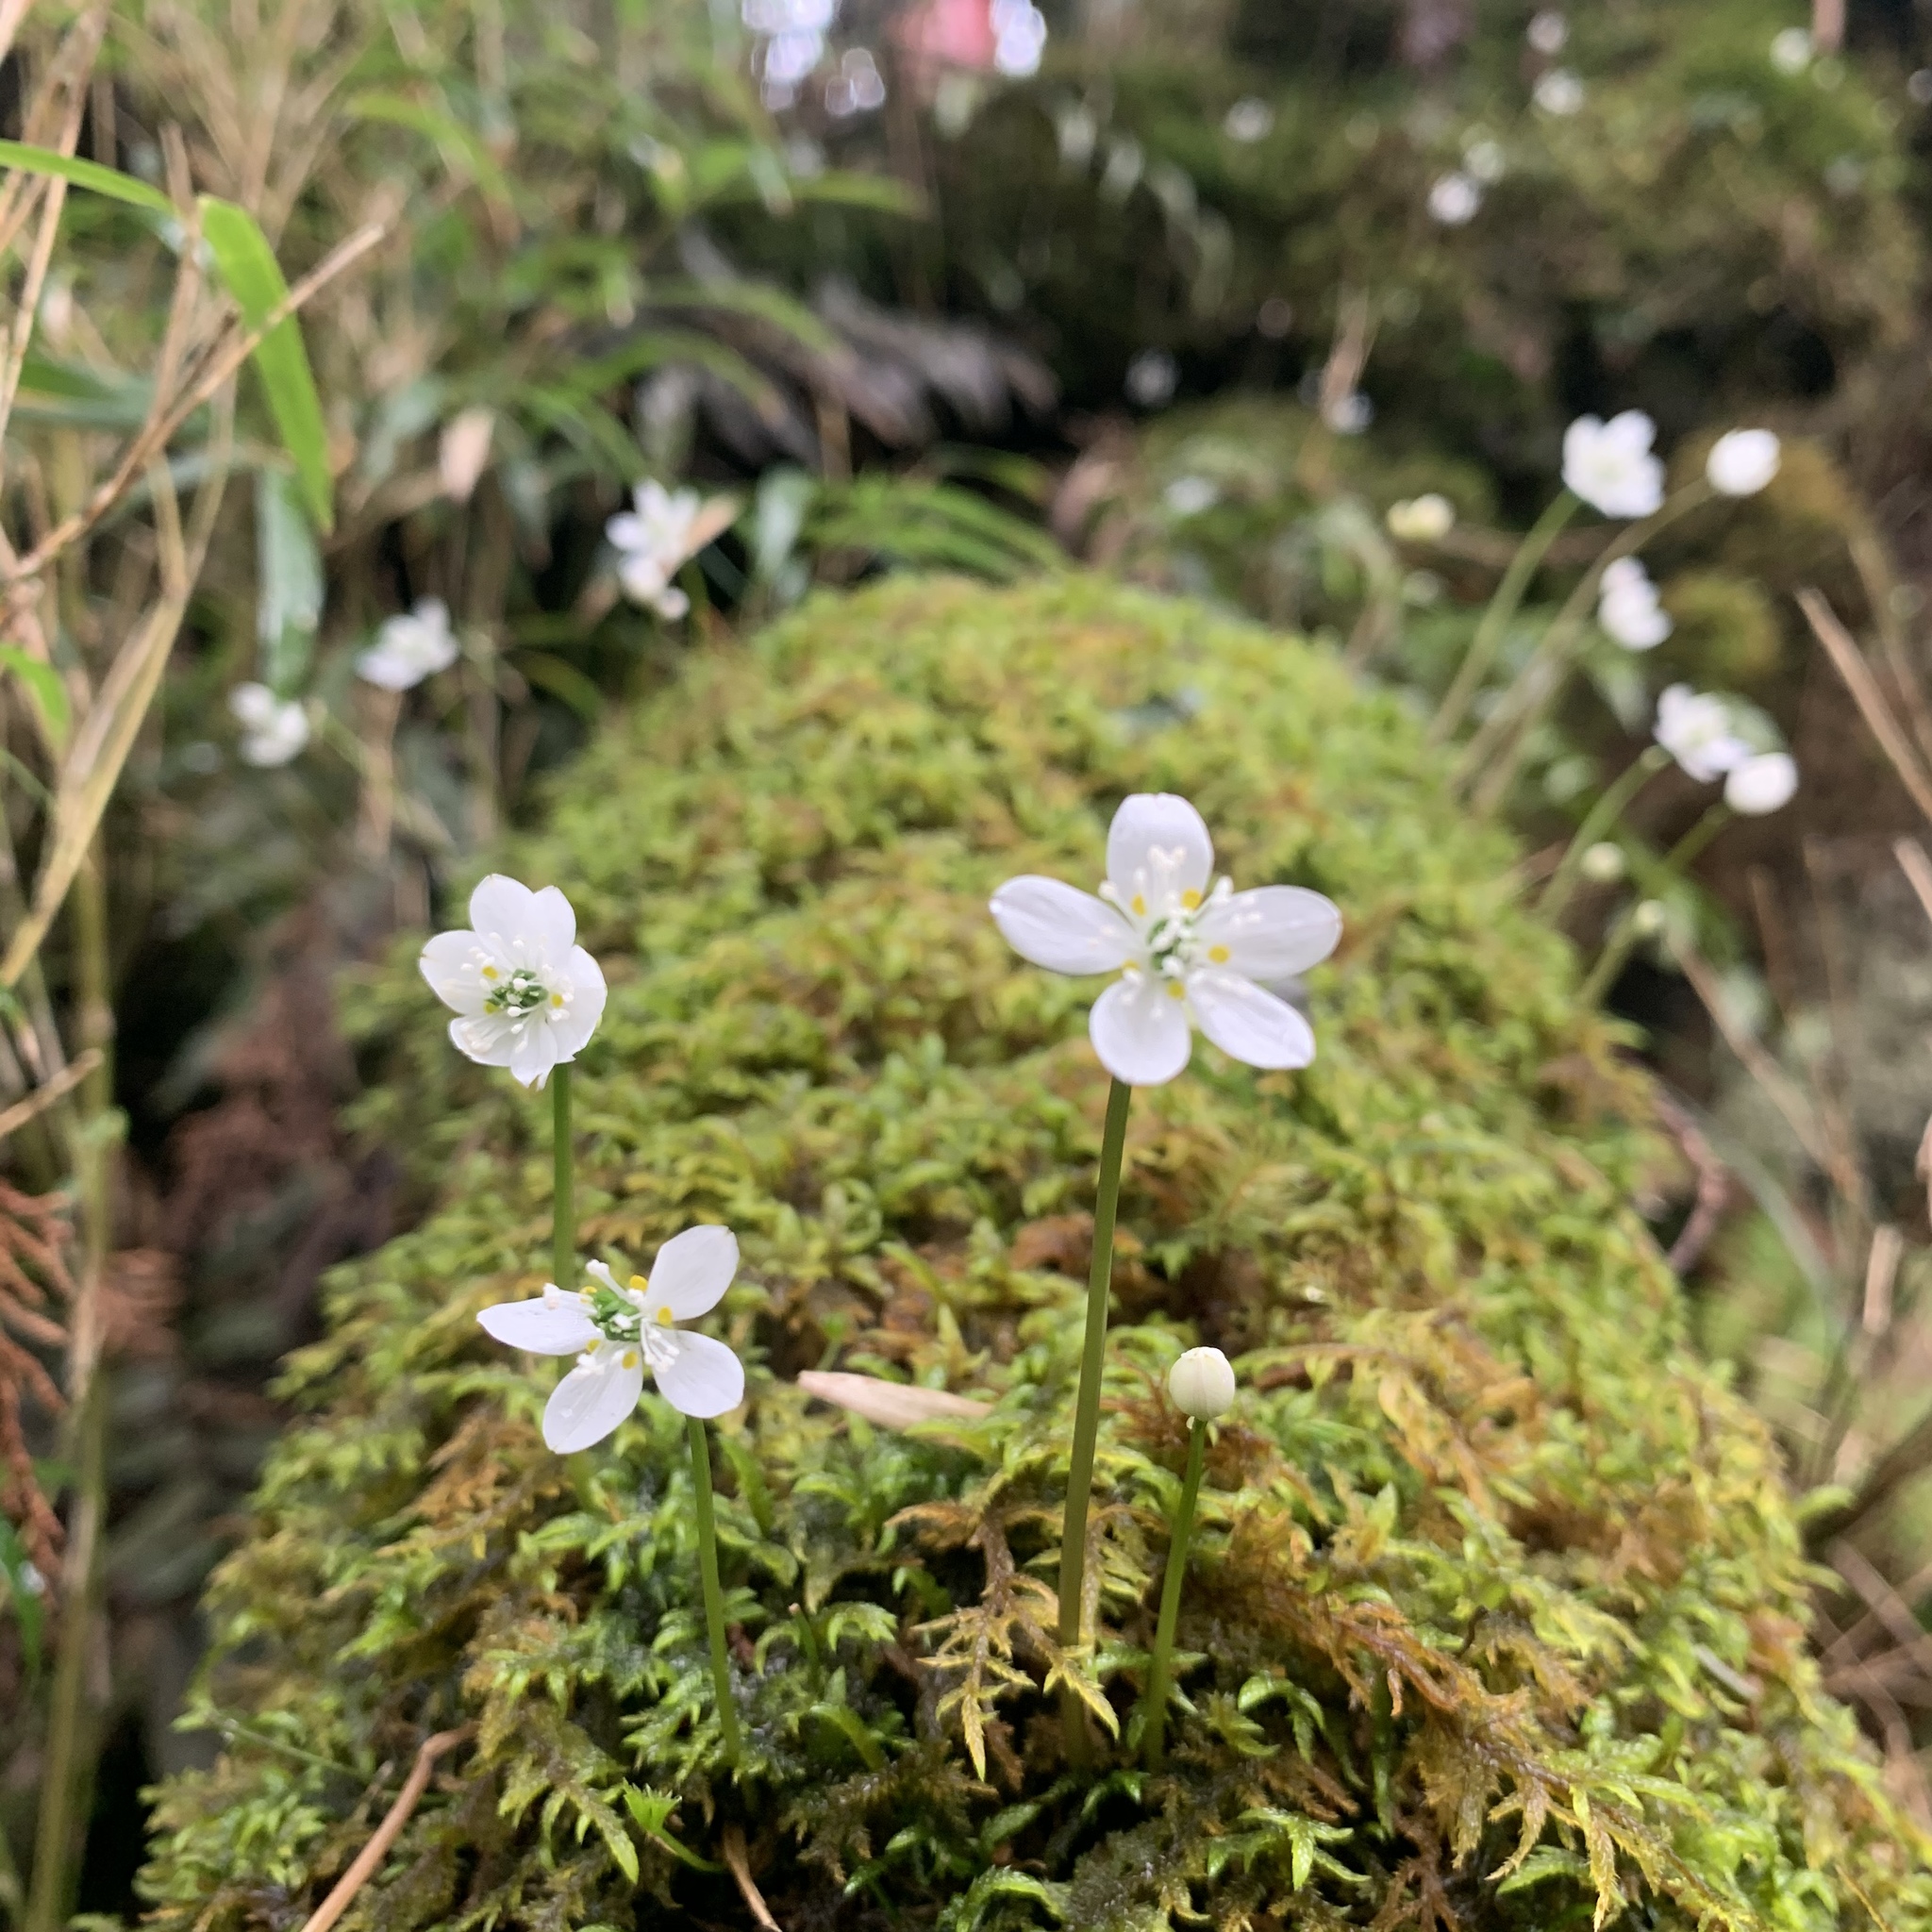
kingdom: Plantae
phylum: Tracheophyta
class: Magnoliopsida
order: Ranunculales
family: Ranunculaceae
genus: Coptis
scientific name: Coptis quinquefolia
